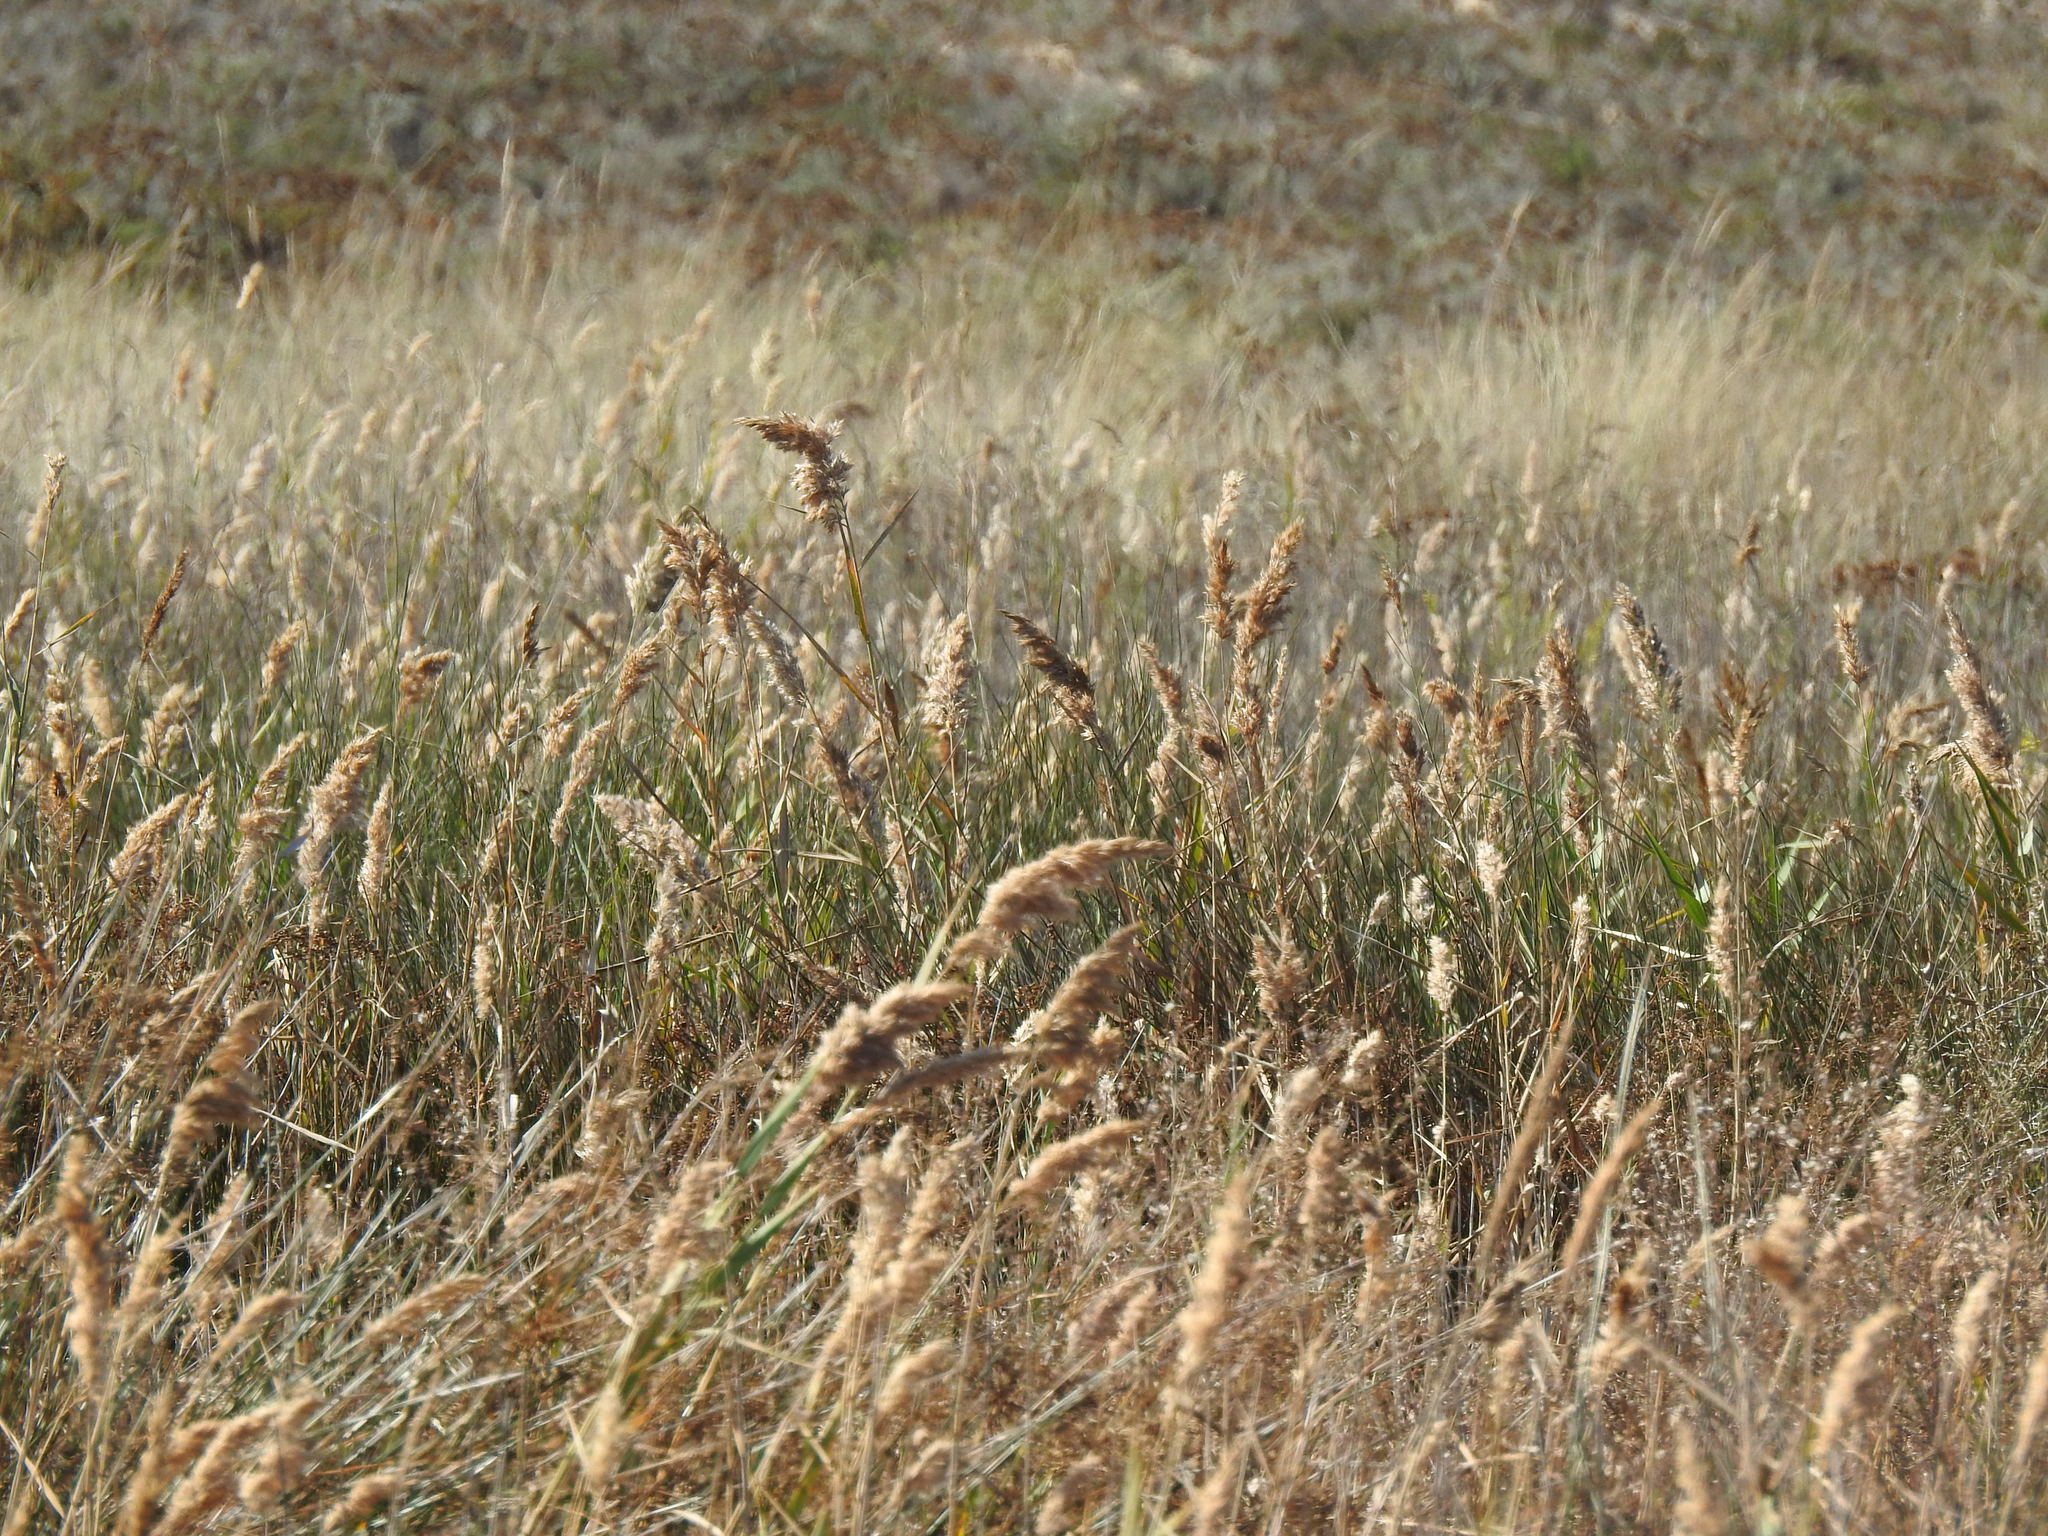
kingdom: Plantae
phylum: Tracheophyta
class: Liliopsida
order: Poales
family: Poaceae
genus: Phragmites
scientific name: Phragmites australis
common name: Common reed
